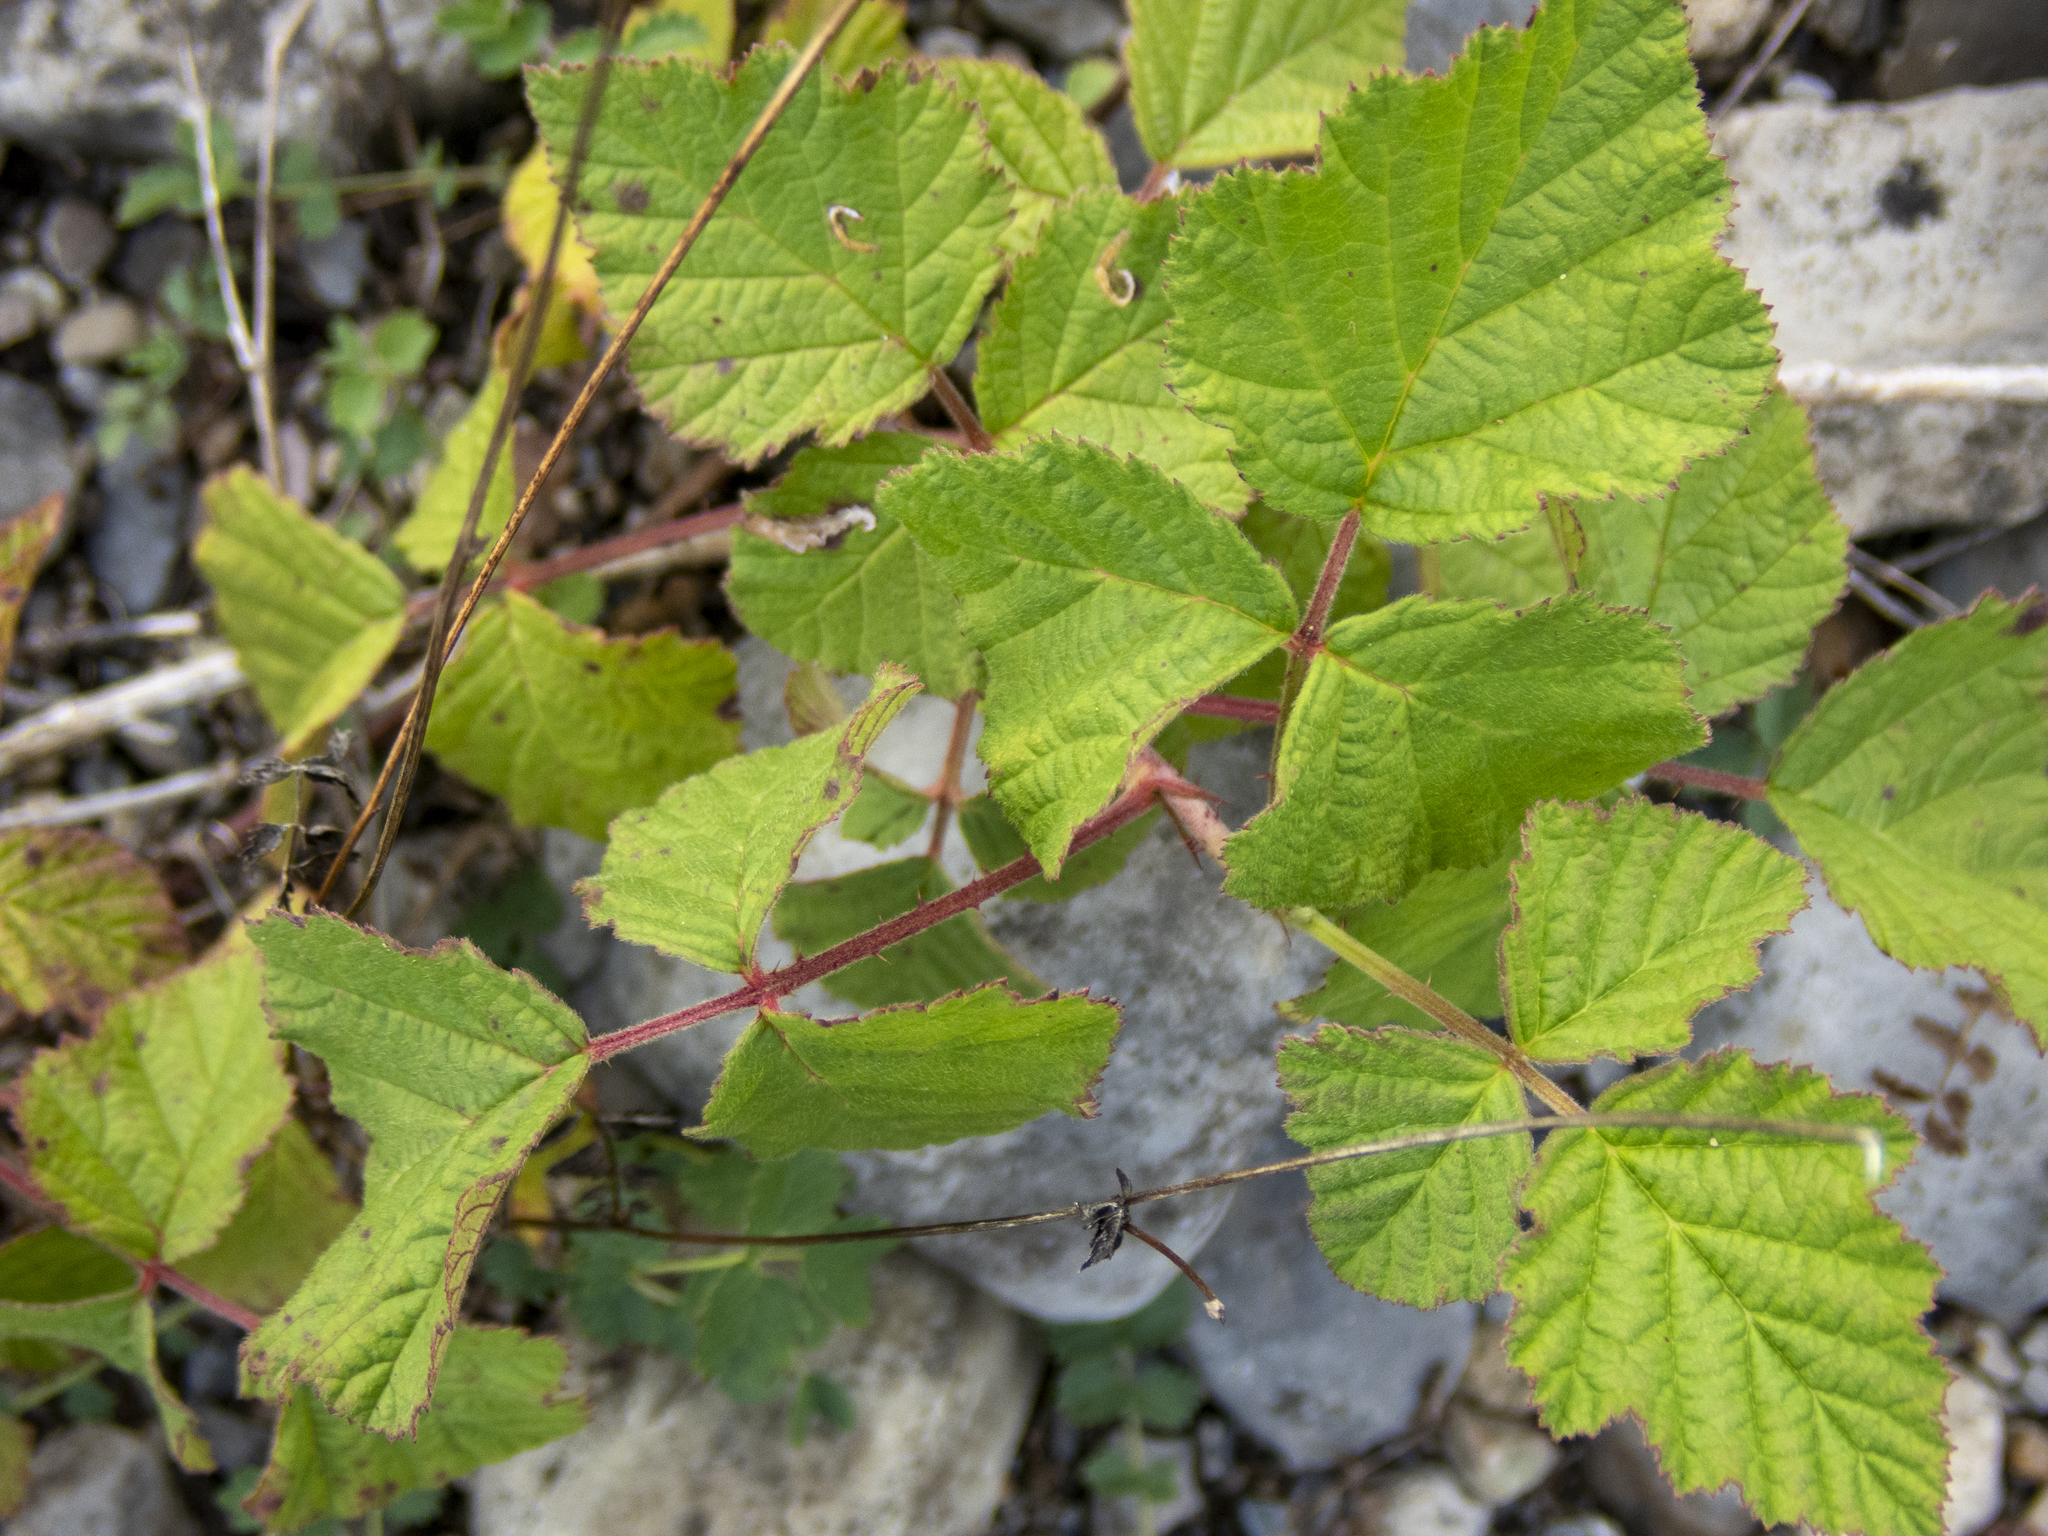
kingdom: Plantae
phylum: Tracheophyta
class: Magnoliopsida
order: Rosales
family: Rosaceae
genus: Rubus
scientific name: Rubus caesius
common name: Dewberry
